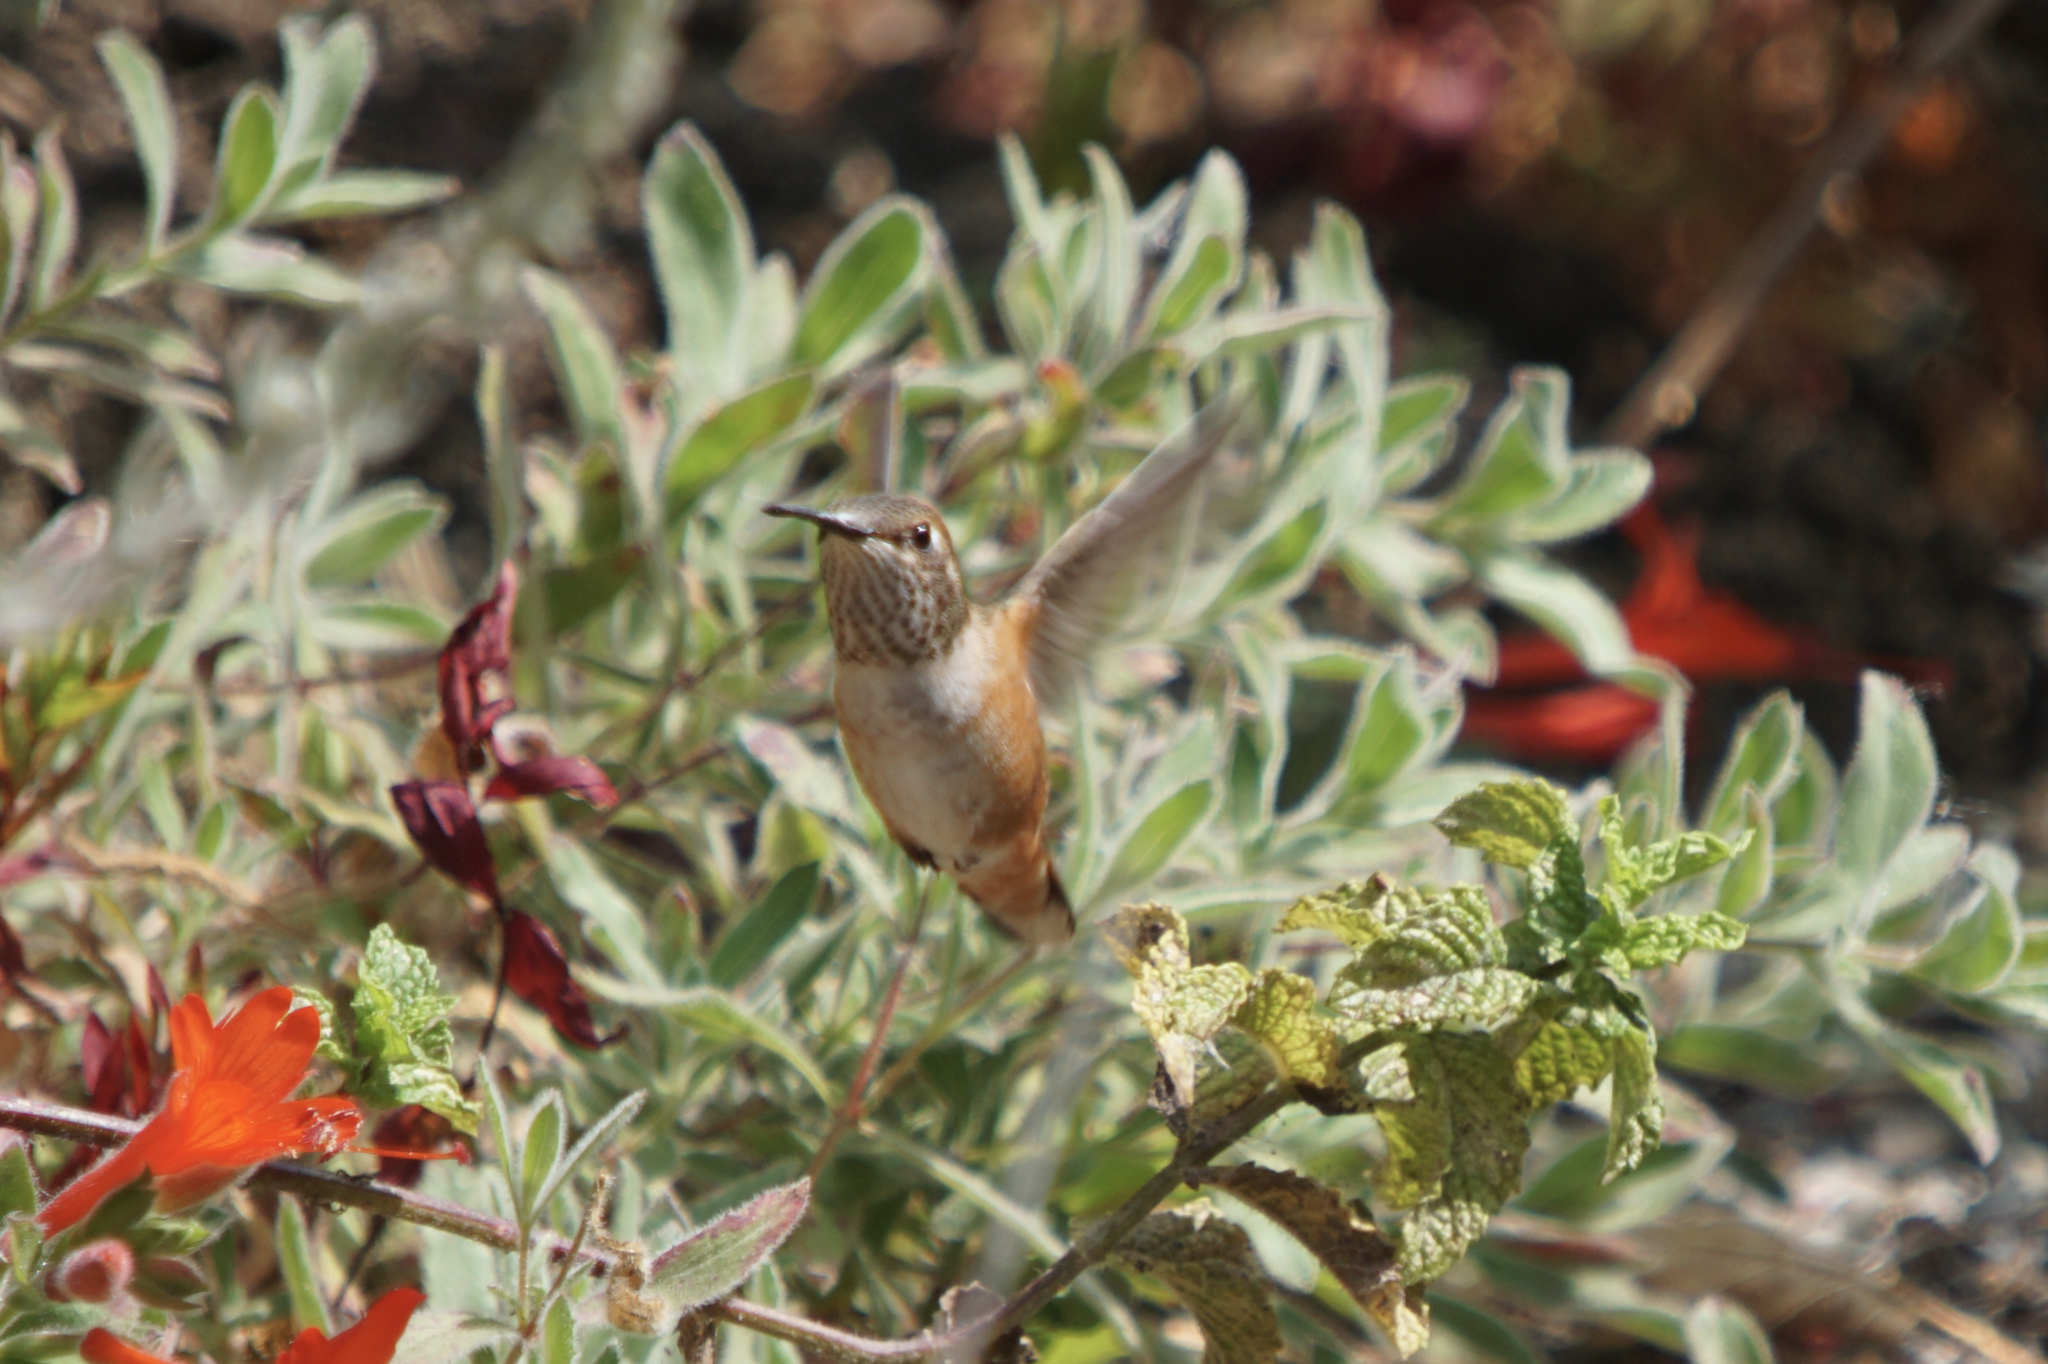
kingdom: Animalia
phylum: Chordata
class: Aves
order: Apodiformes
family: Trochilidae
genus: Selasphorus
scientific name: Selasphorus
